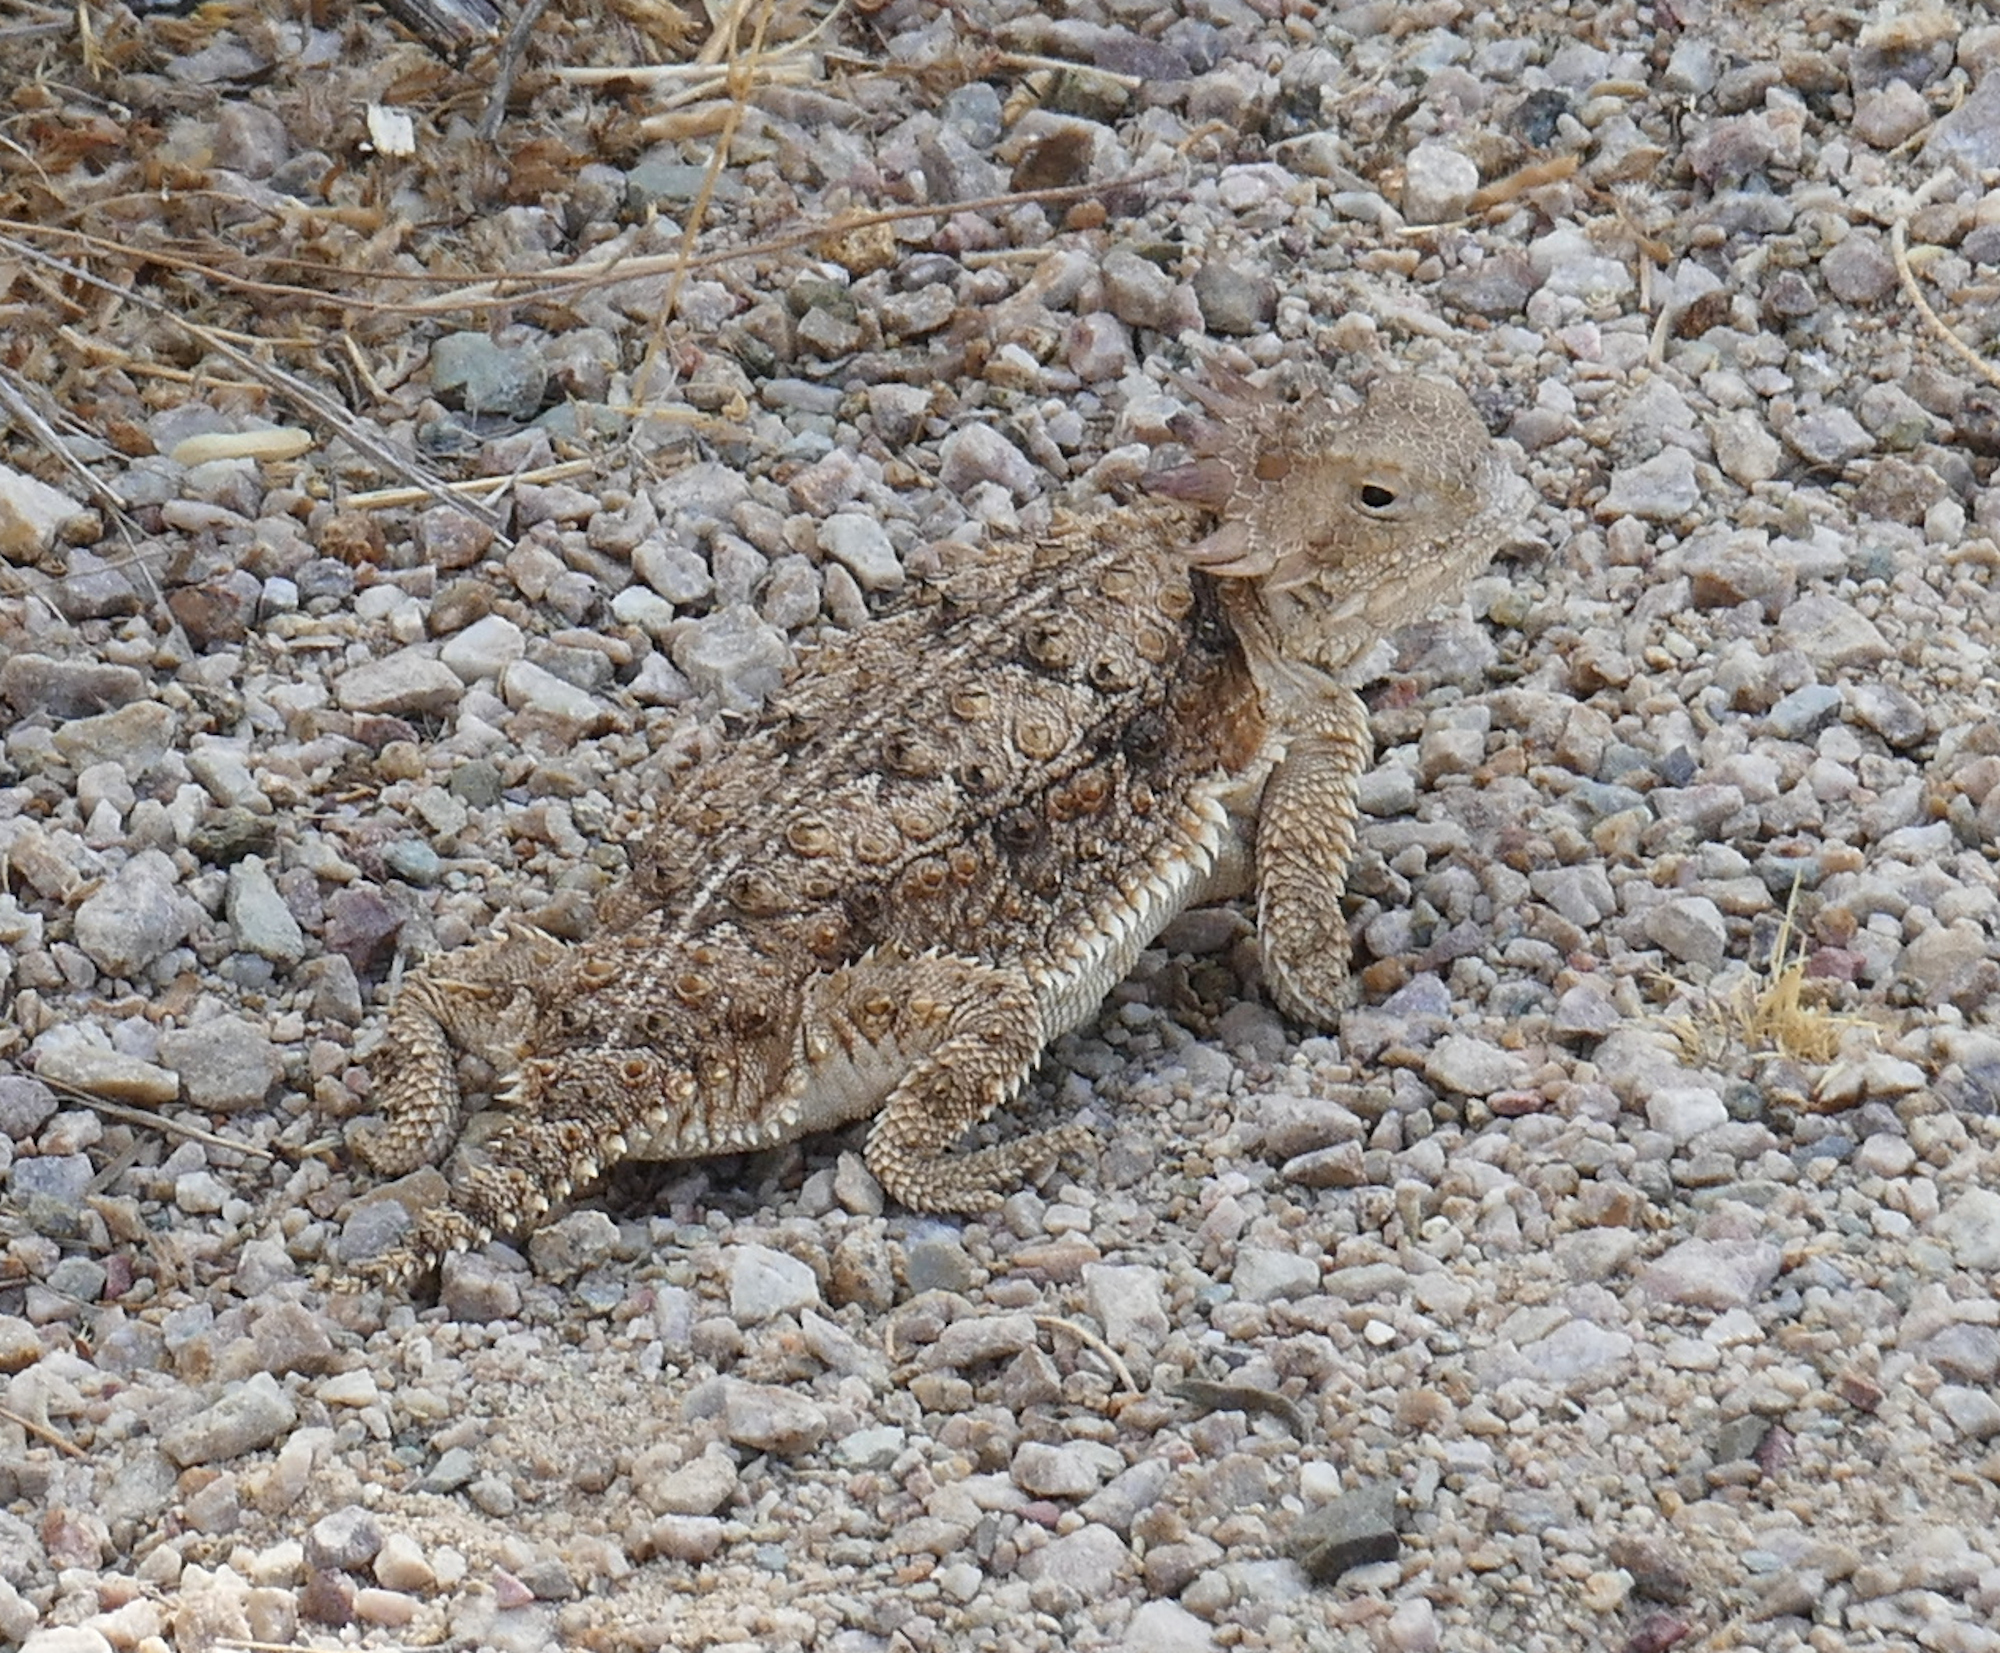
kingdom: Animalia
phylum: Chordata
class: Squamata
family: Phrynosomatidae
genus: Phrynosoma
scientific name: Phrynosoma solare
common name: Regal horned lizard
